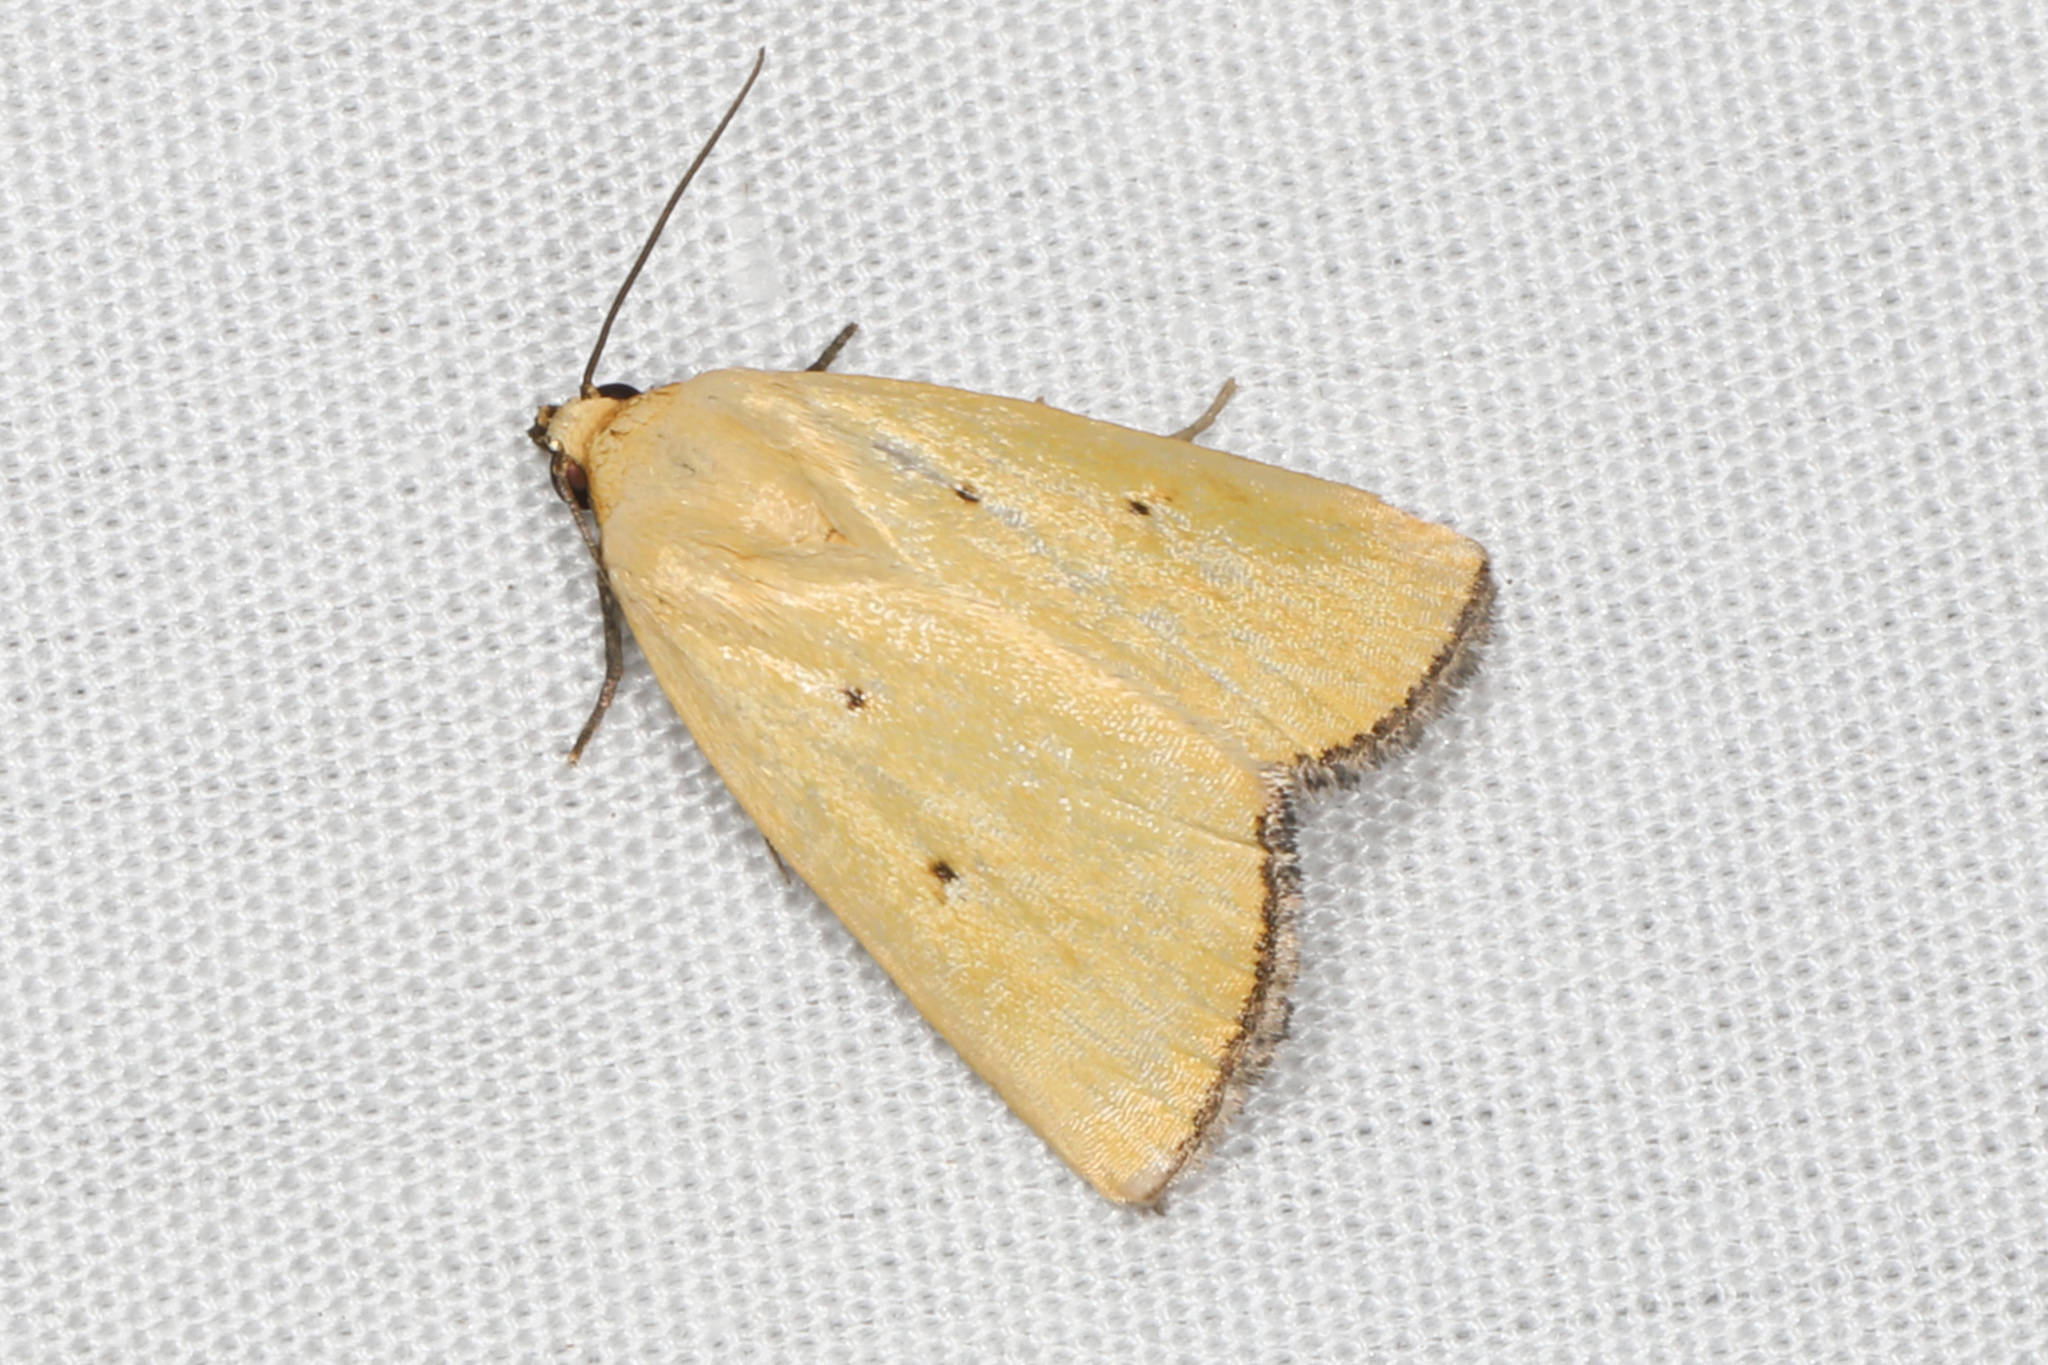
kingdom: Animalia
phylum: Arthropoda
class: Insecta
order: Lepidoptera
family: Noctuidae
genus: Marimatha
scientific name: Marimatha nigrofimbria
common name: Black-bordered lemon moth
